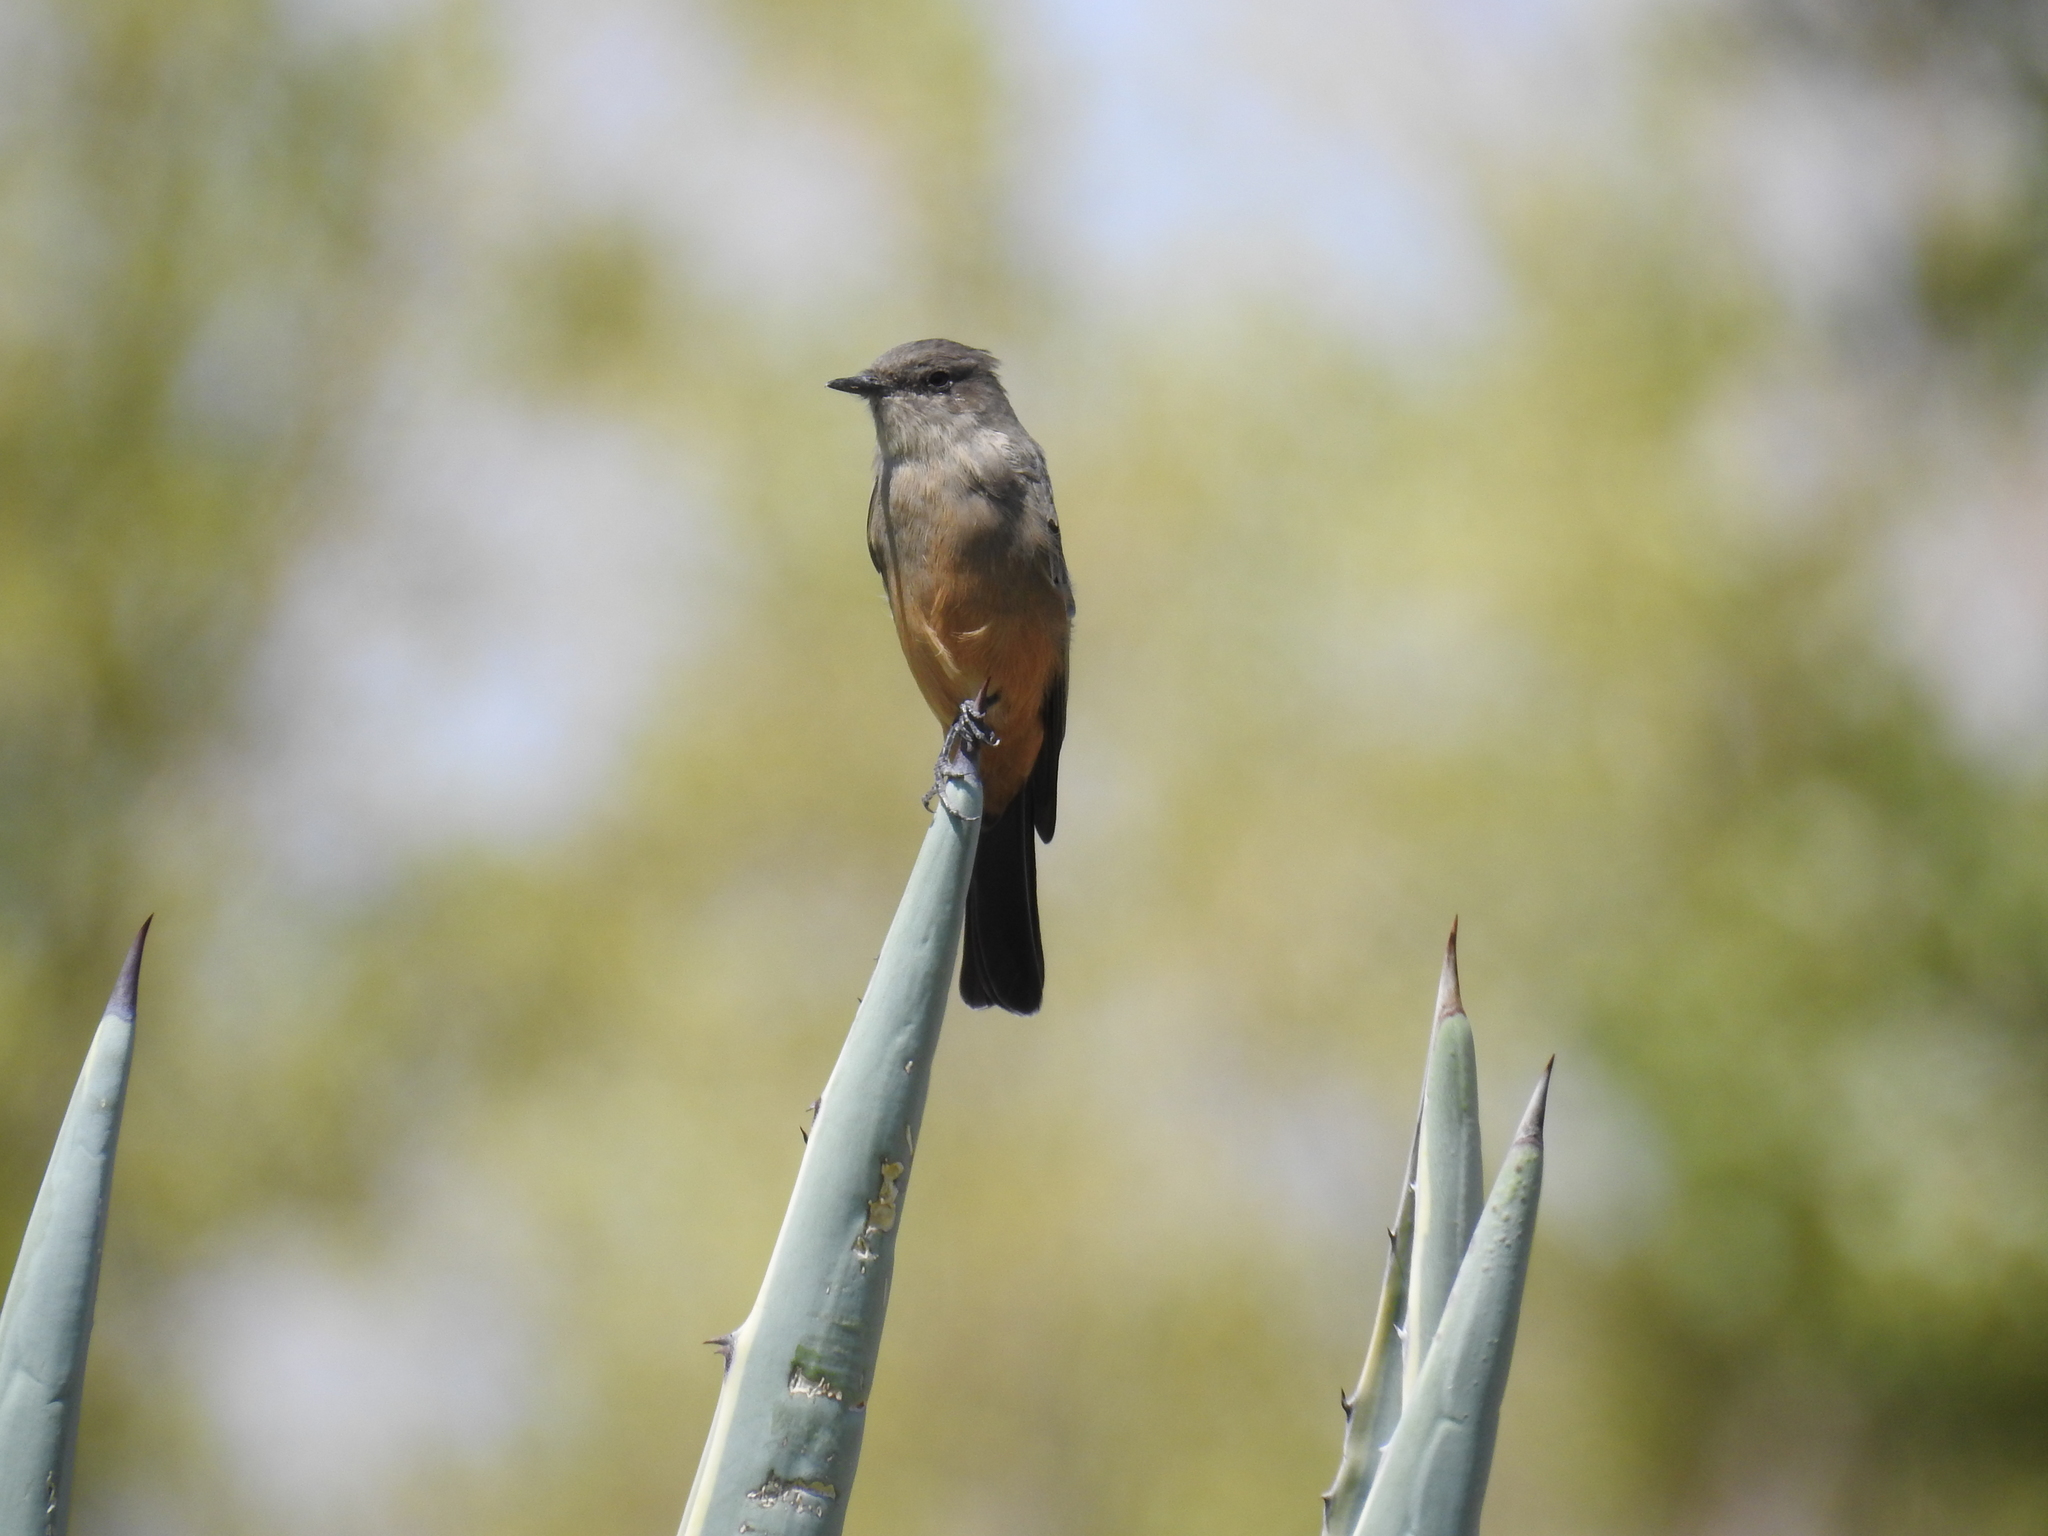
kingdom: Animalia
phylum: Chordata
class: Aves
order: Passeriformes
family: Tyrannidae
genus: Sayornis
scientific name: Sayornis saya
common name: Say's phoebe
